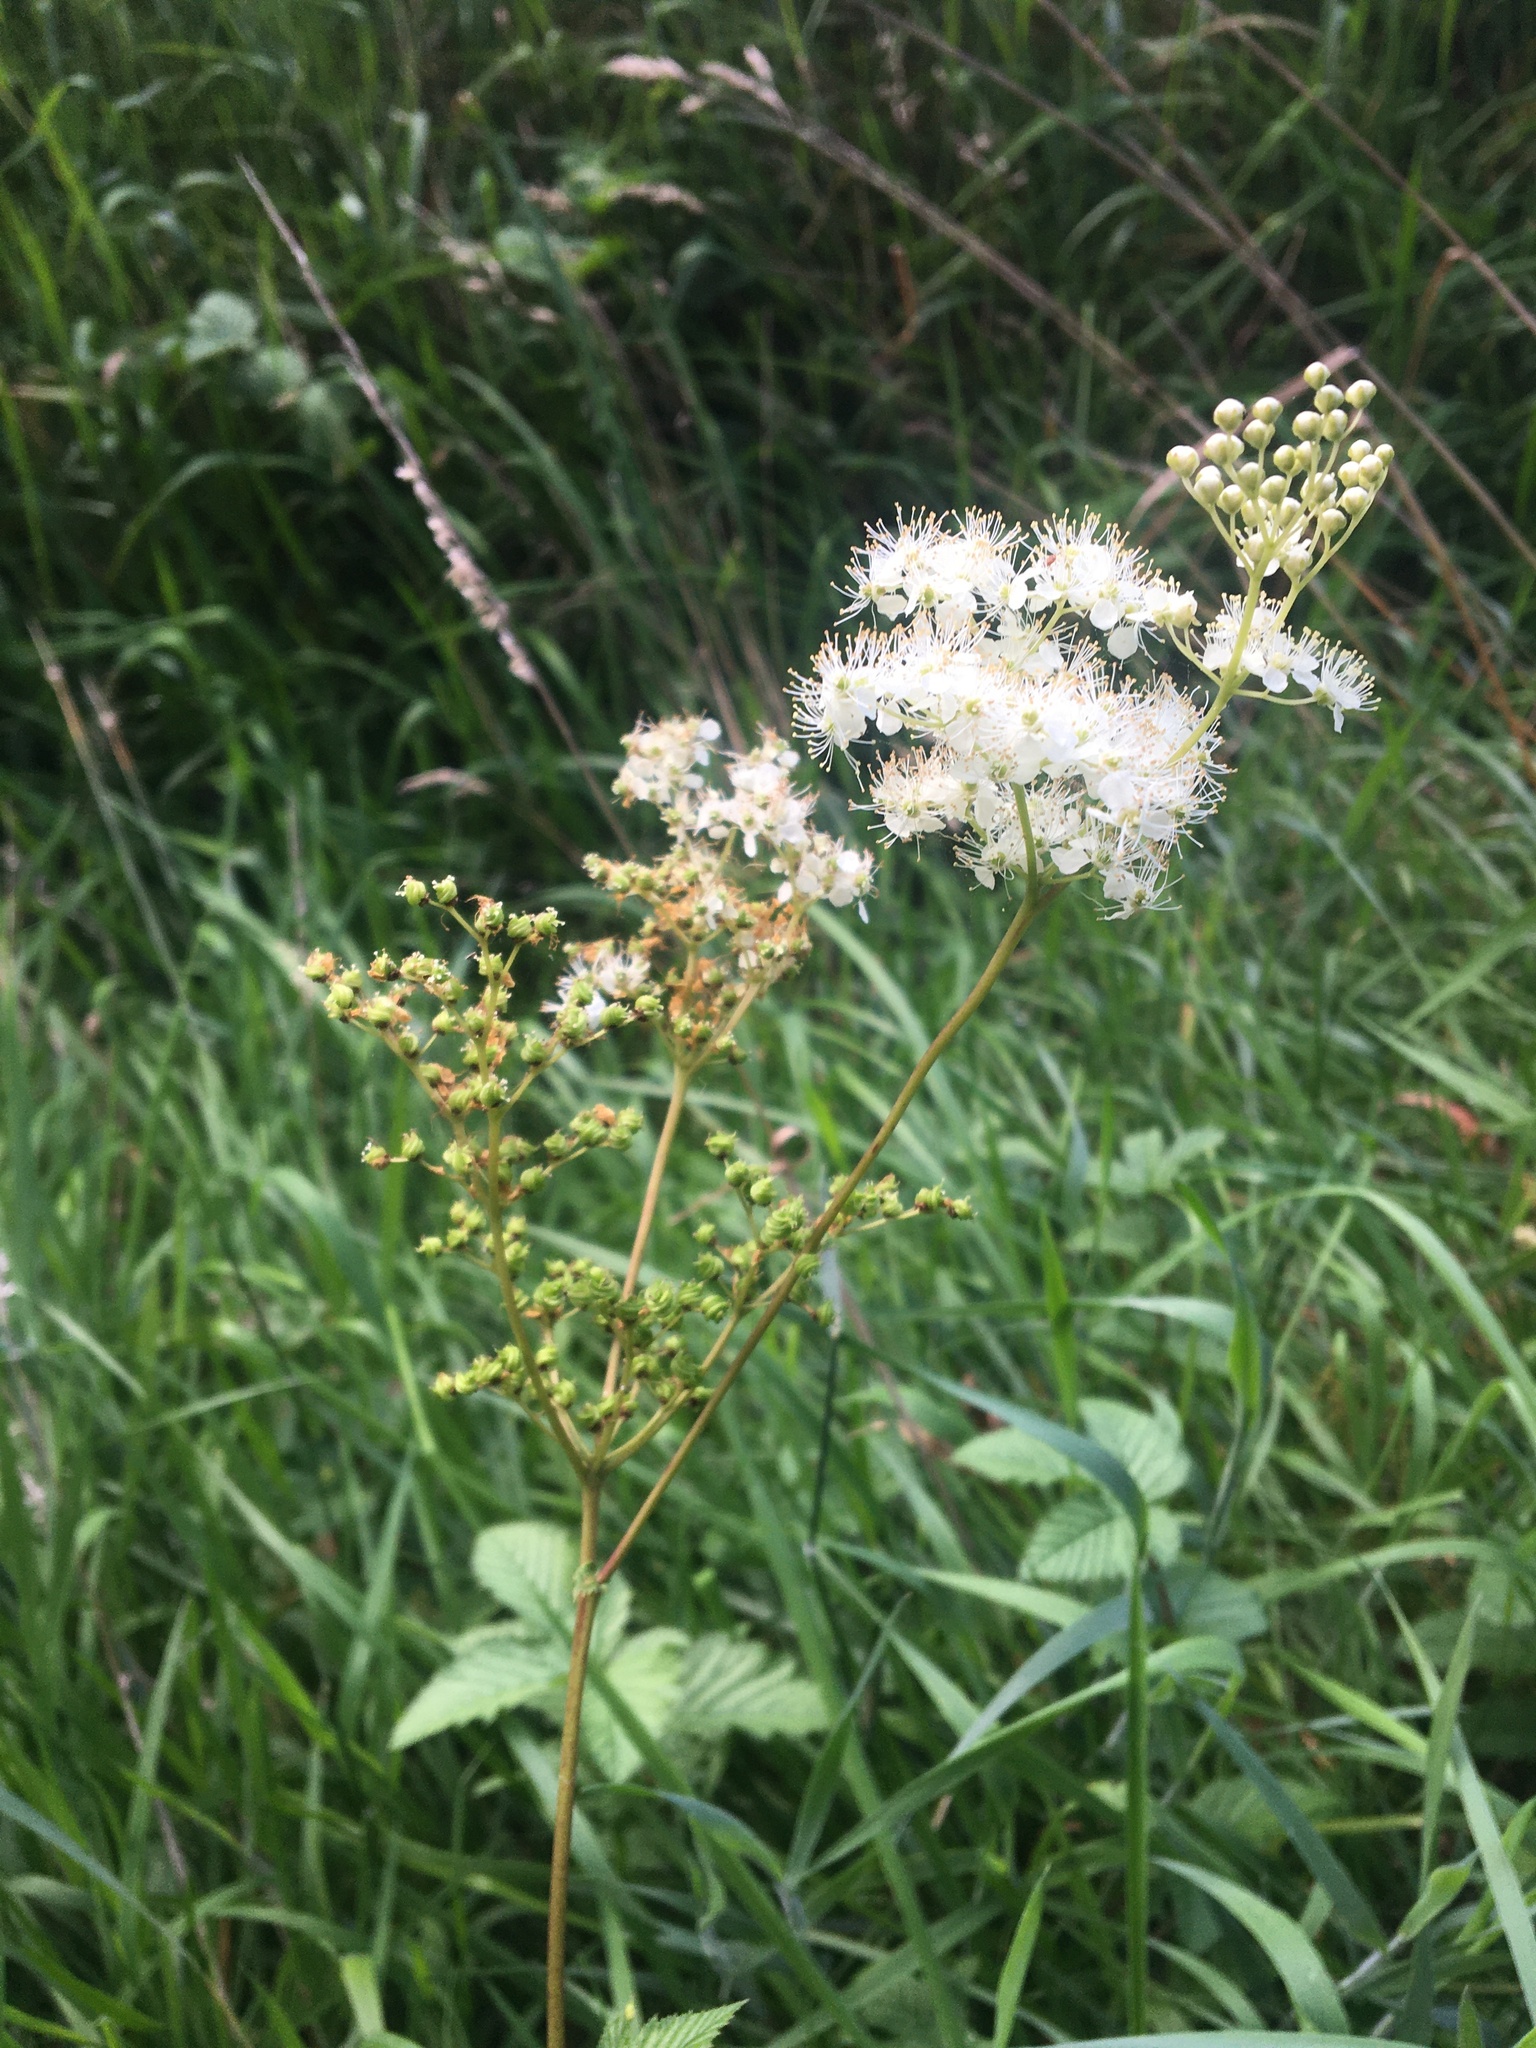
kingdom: Plantae
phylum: Tracheophyta
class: Magnoliopsida
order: Rosales
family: Rosaceae
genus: Filipendula
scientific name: Filipendula ulmaria
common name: Meadowsweet
